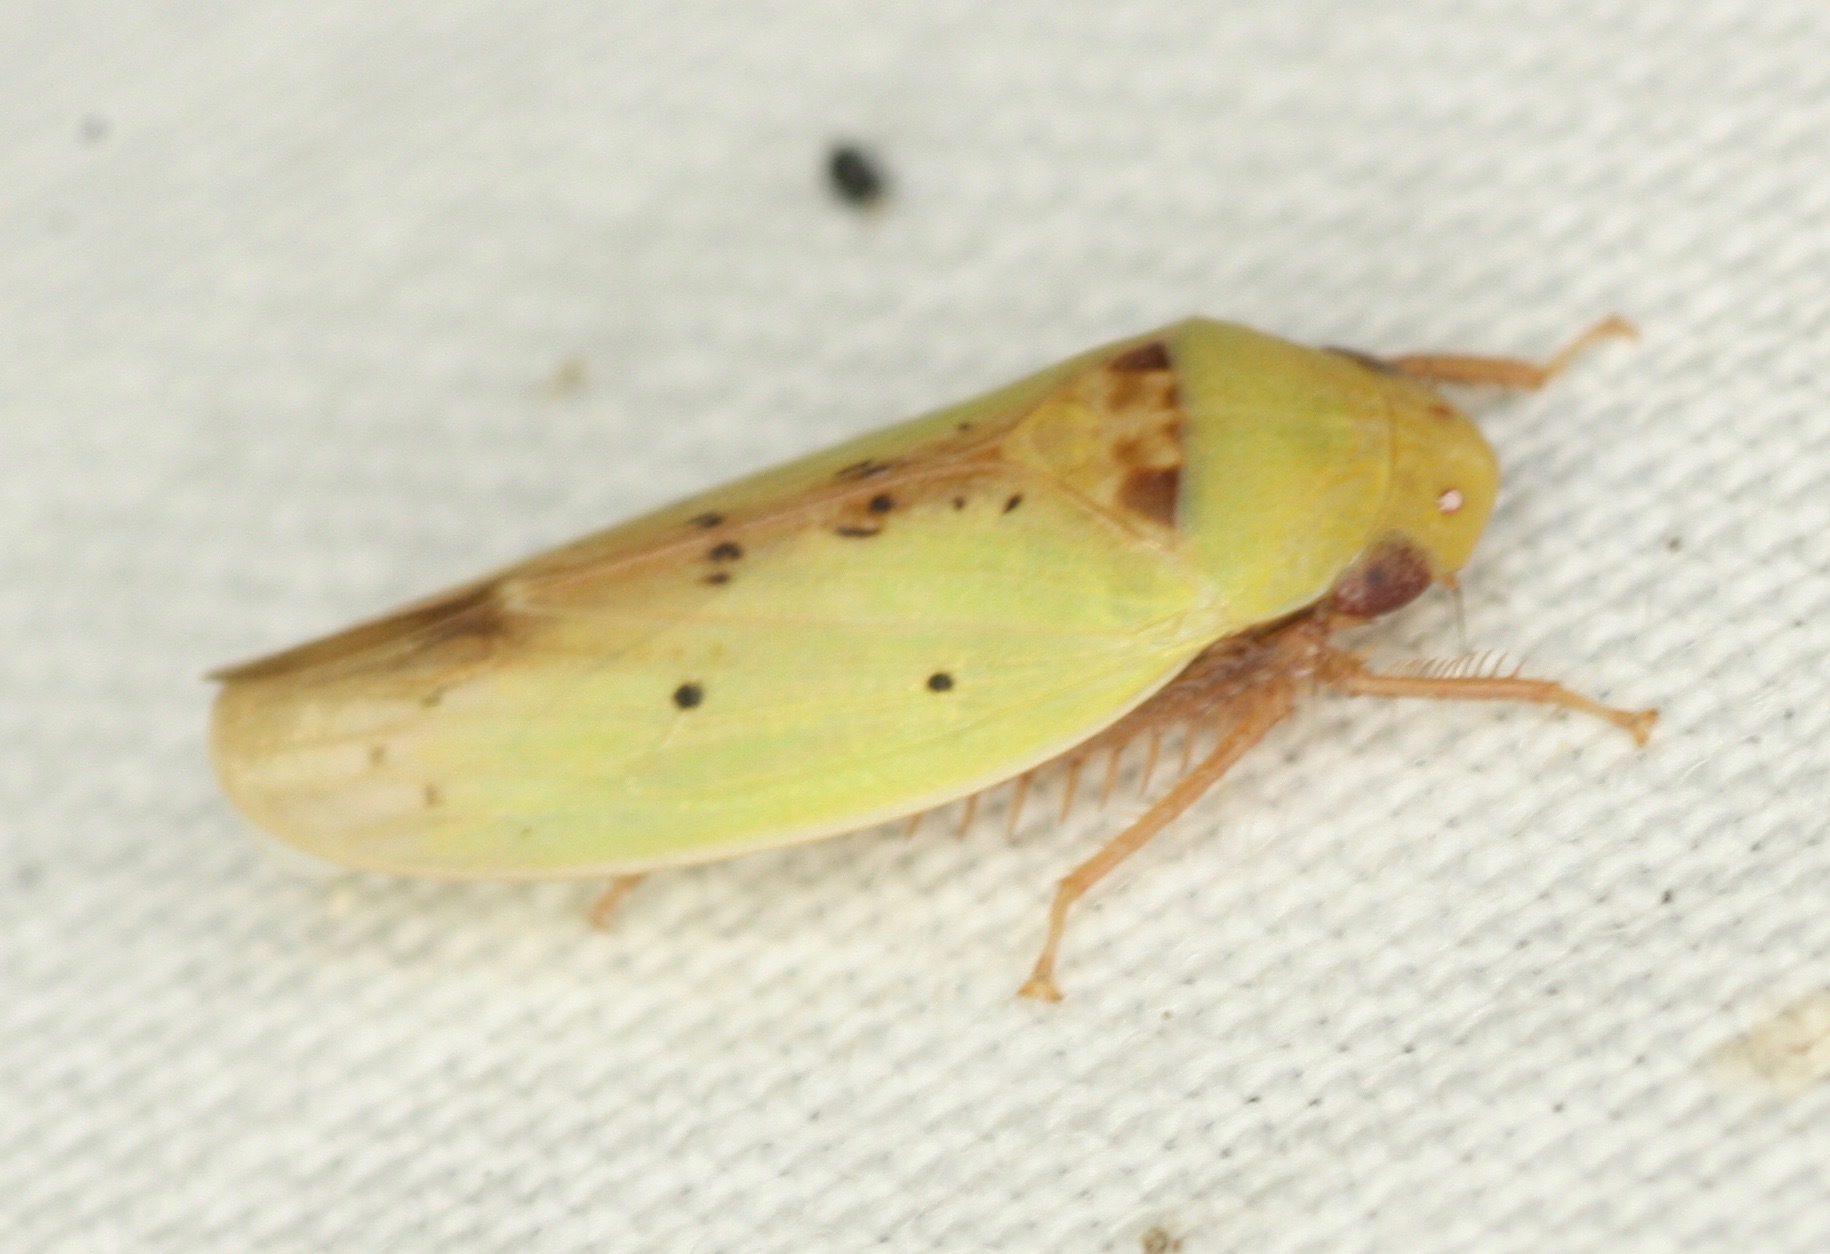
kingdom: Animalia
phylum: Arthropoda
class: Insecta
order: Hemiptera
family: Cicadellidae
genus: Ponana
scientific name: Ponana
